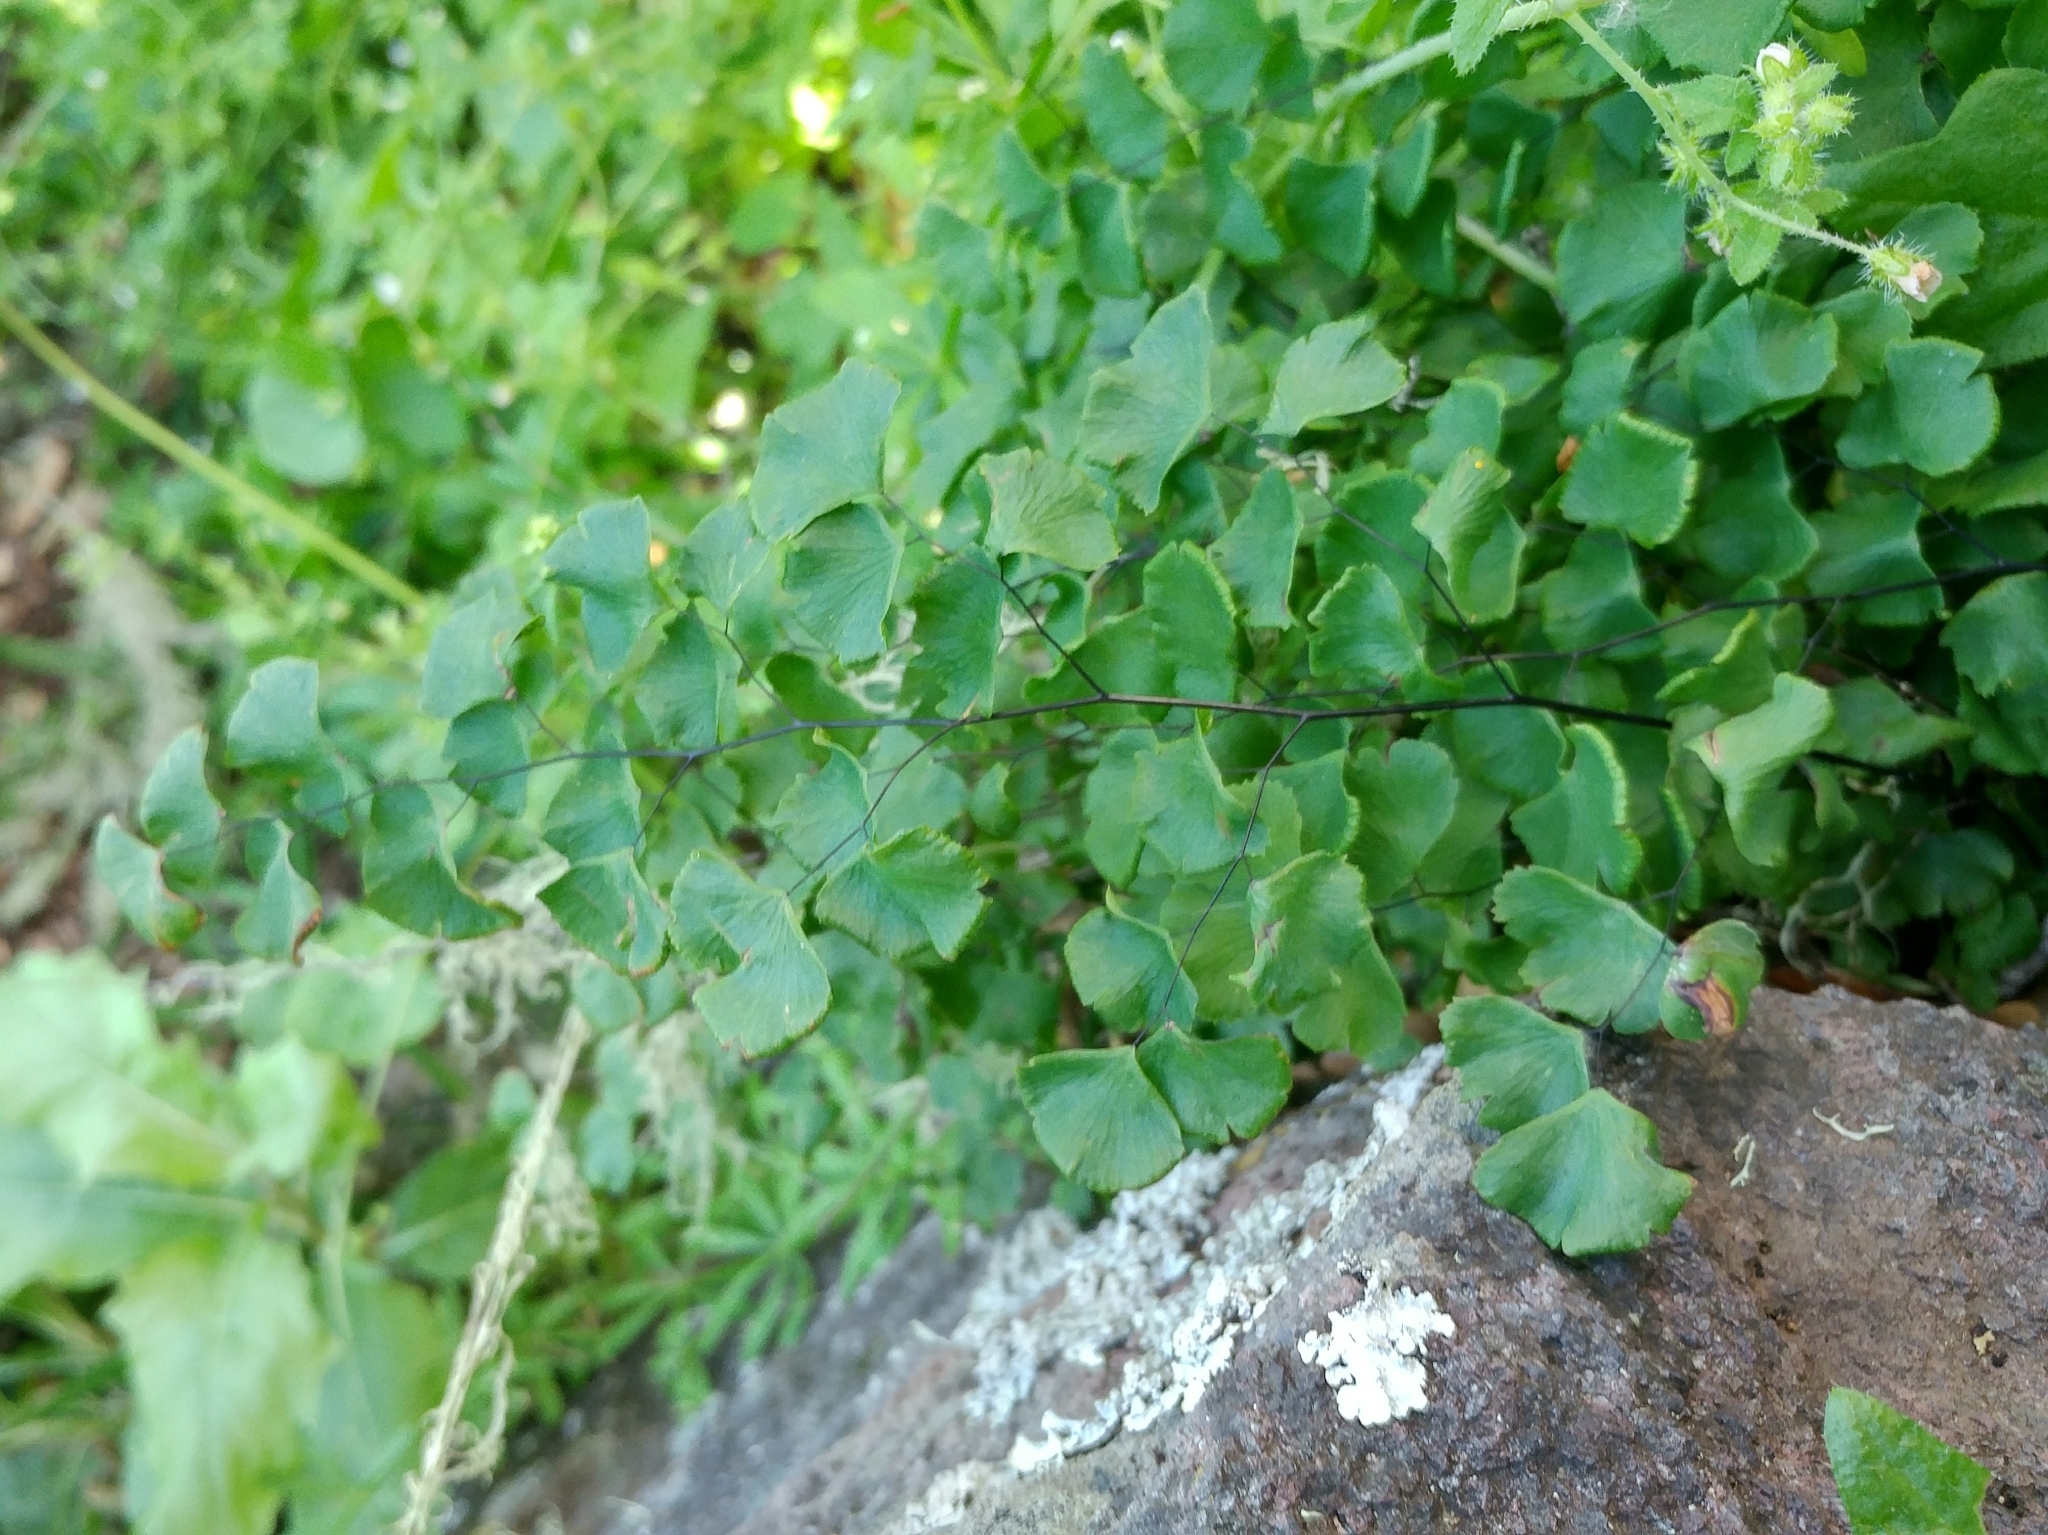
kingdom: Plantae
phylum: Tracheophyta
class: Polypodiopsida
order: Polypodiales
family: Pteridaceae
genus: Adiantum
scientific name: Adiantum jordanii
